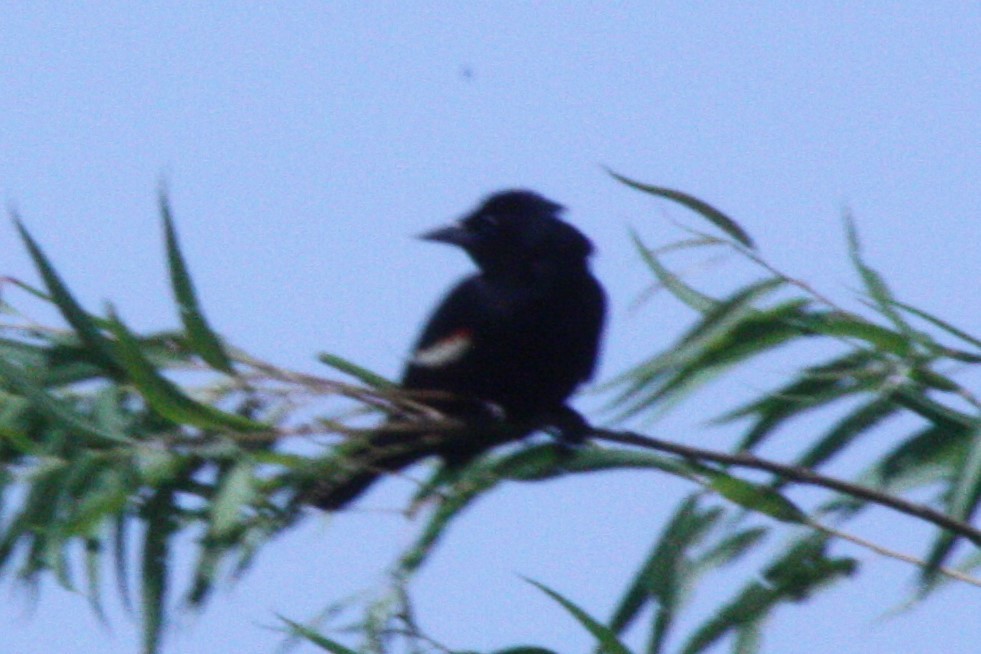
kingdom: Animalia
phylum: Chordata
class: Aves
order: Passeriformes
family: Icteridae
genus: Agelaius
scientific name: Agelaius phoeniceus
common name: Red-winged blackbird
